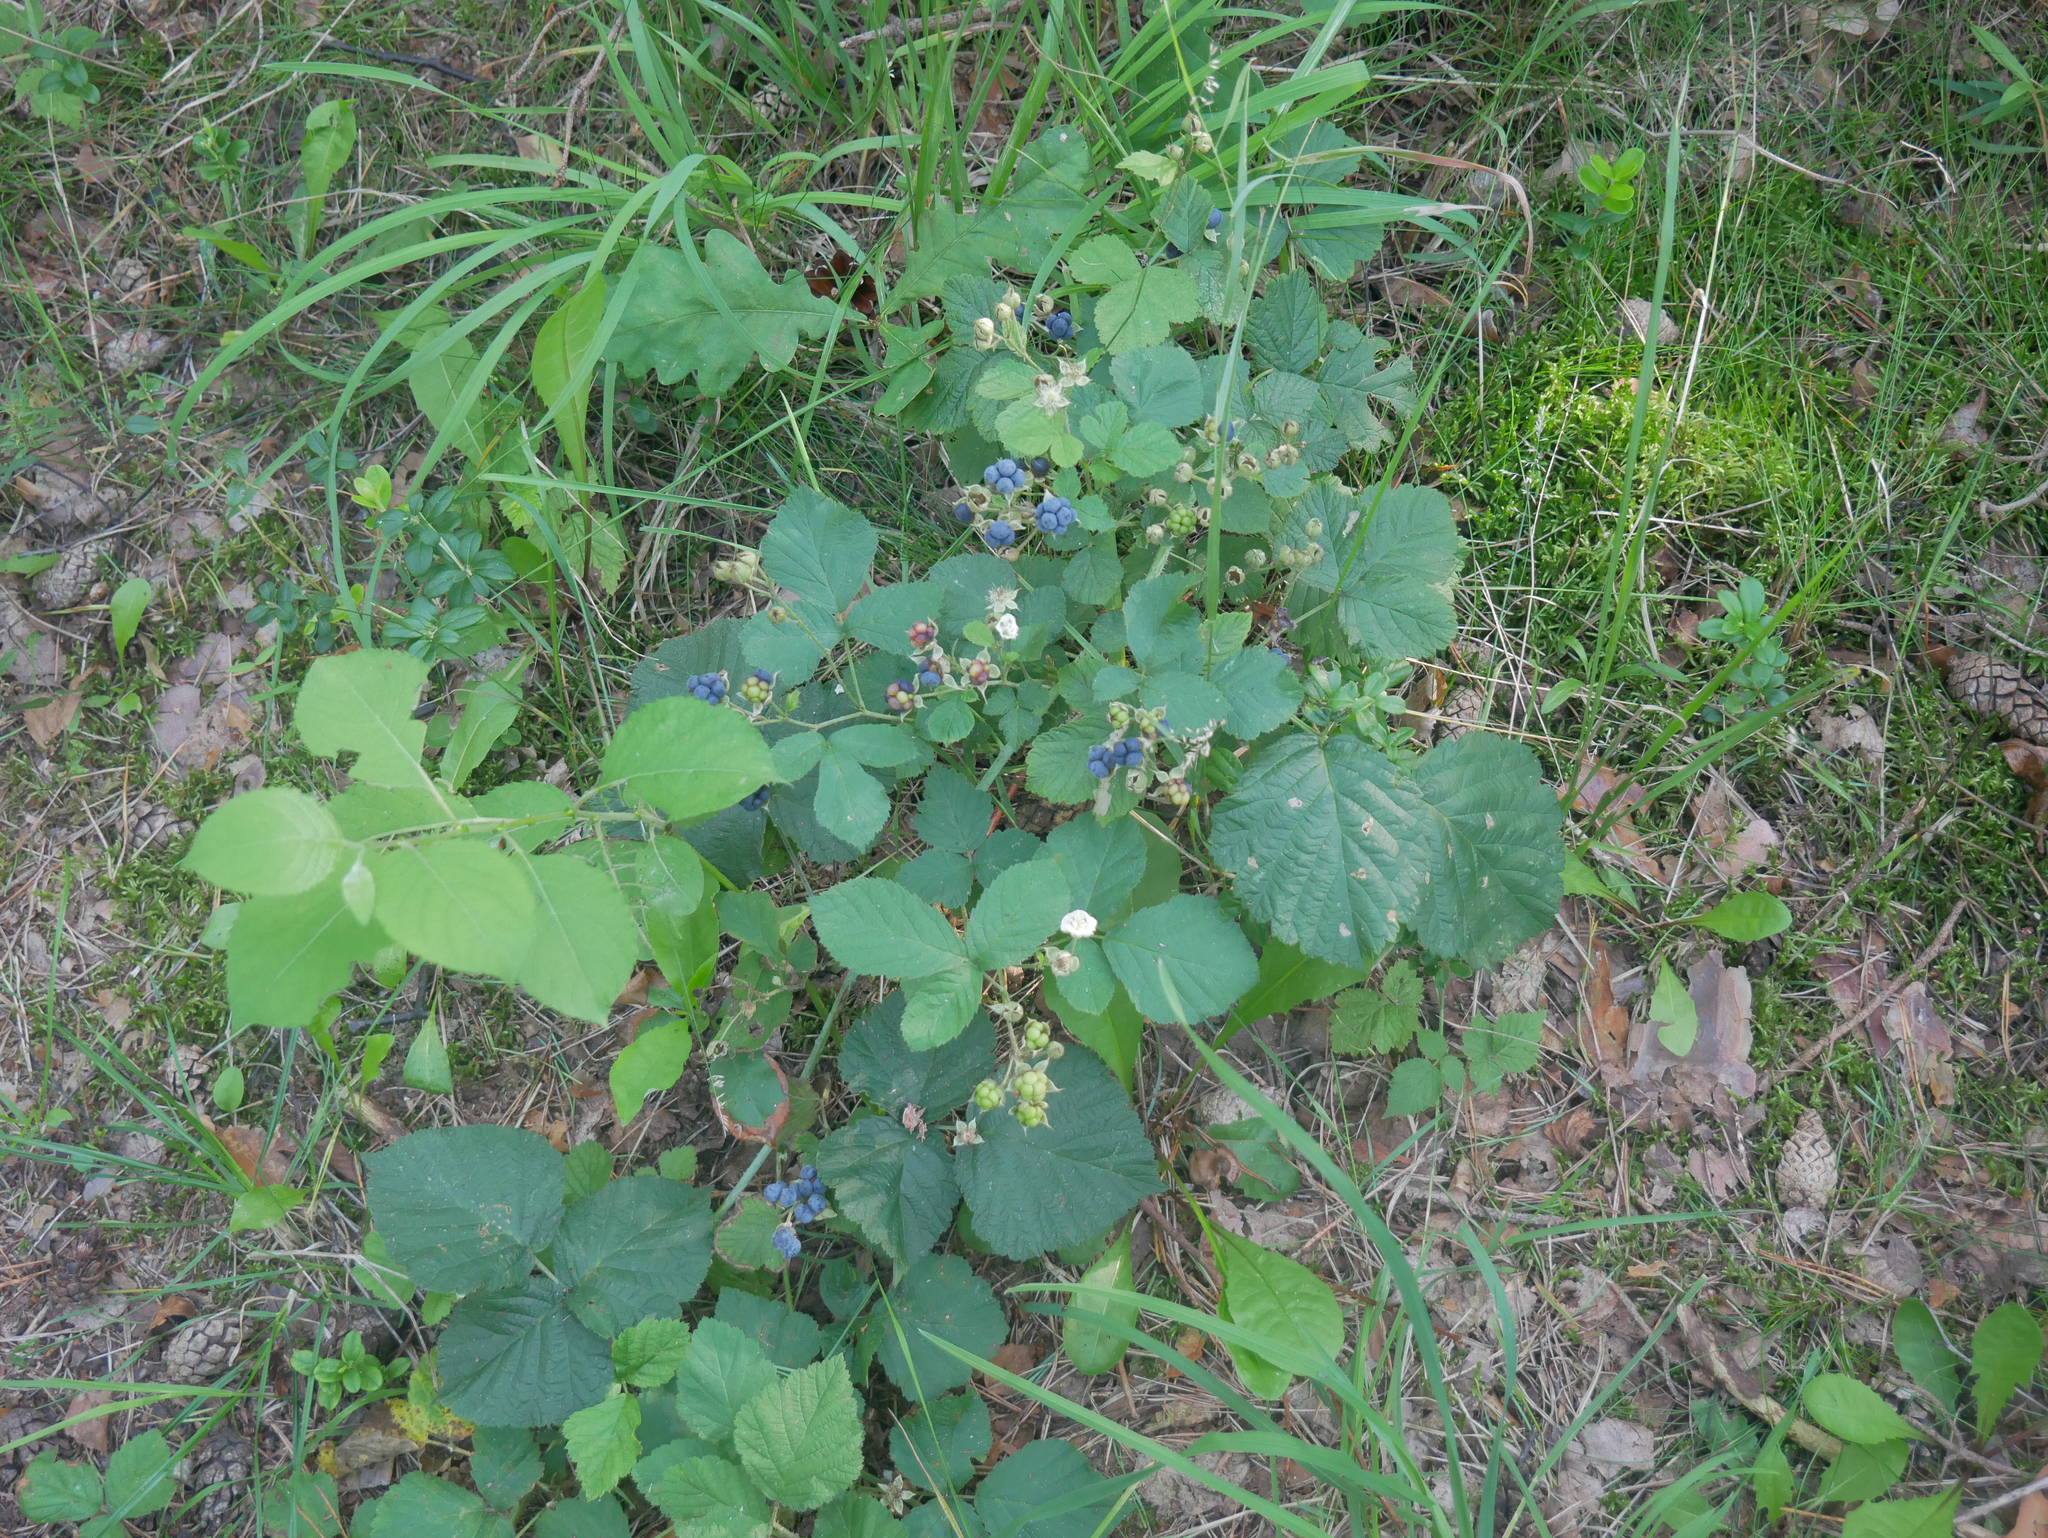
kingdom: Plantae
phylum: Tracheophyta
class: Magnoliopsida
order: Rosales
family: Rosaceae
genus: Rubus
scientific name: Rubus caesius
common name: Dewberry
